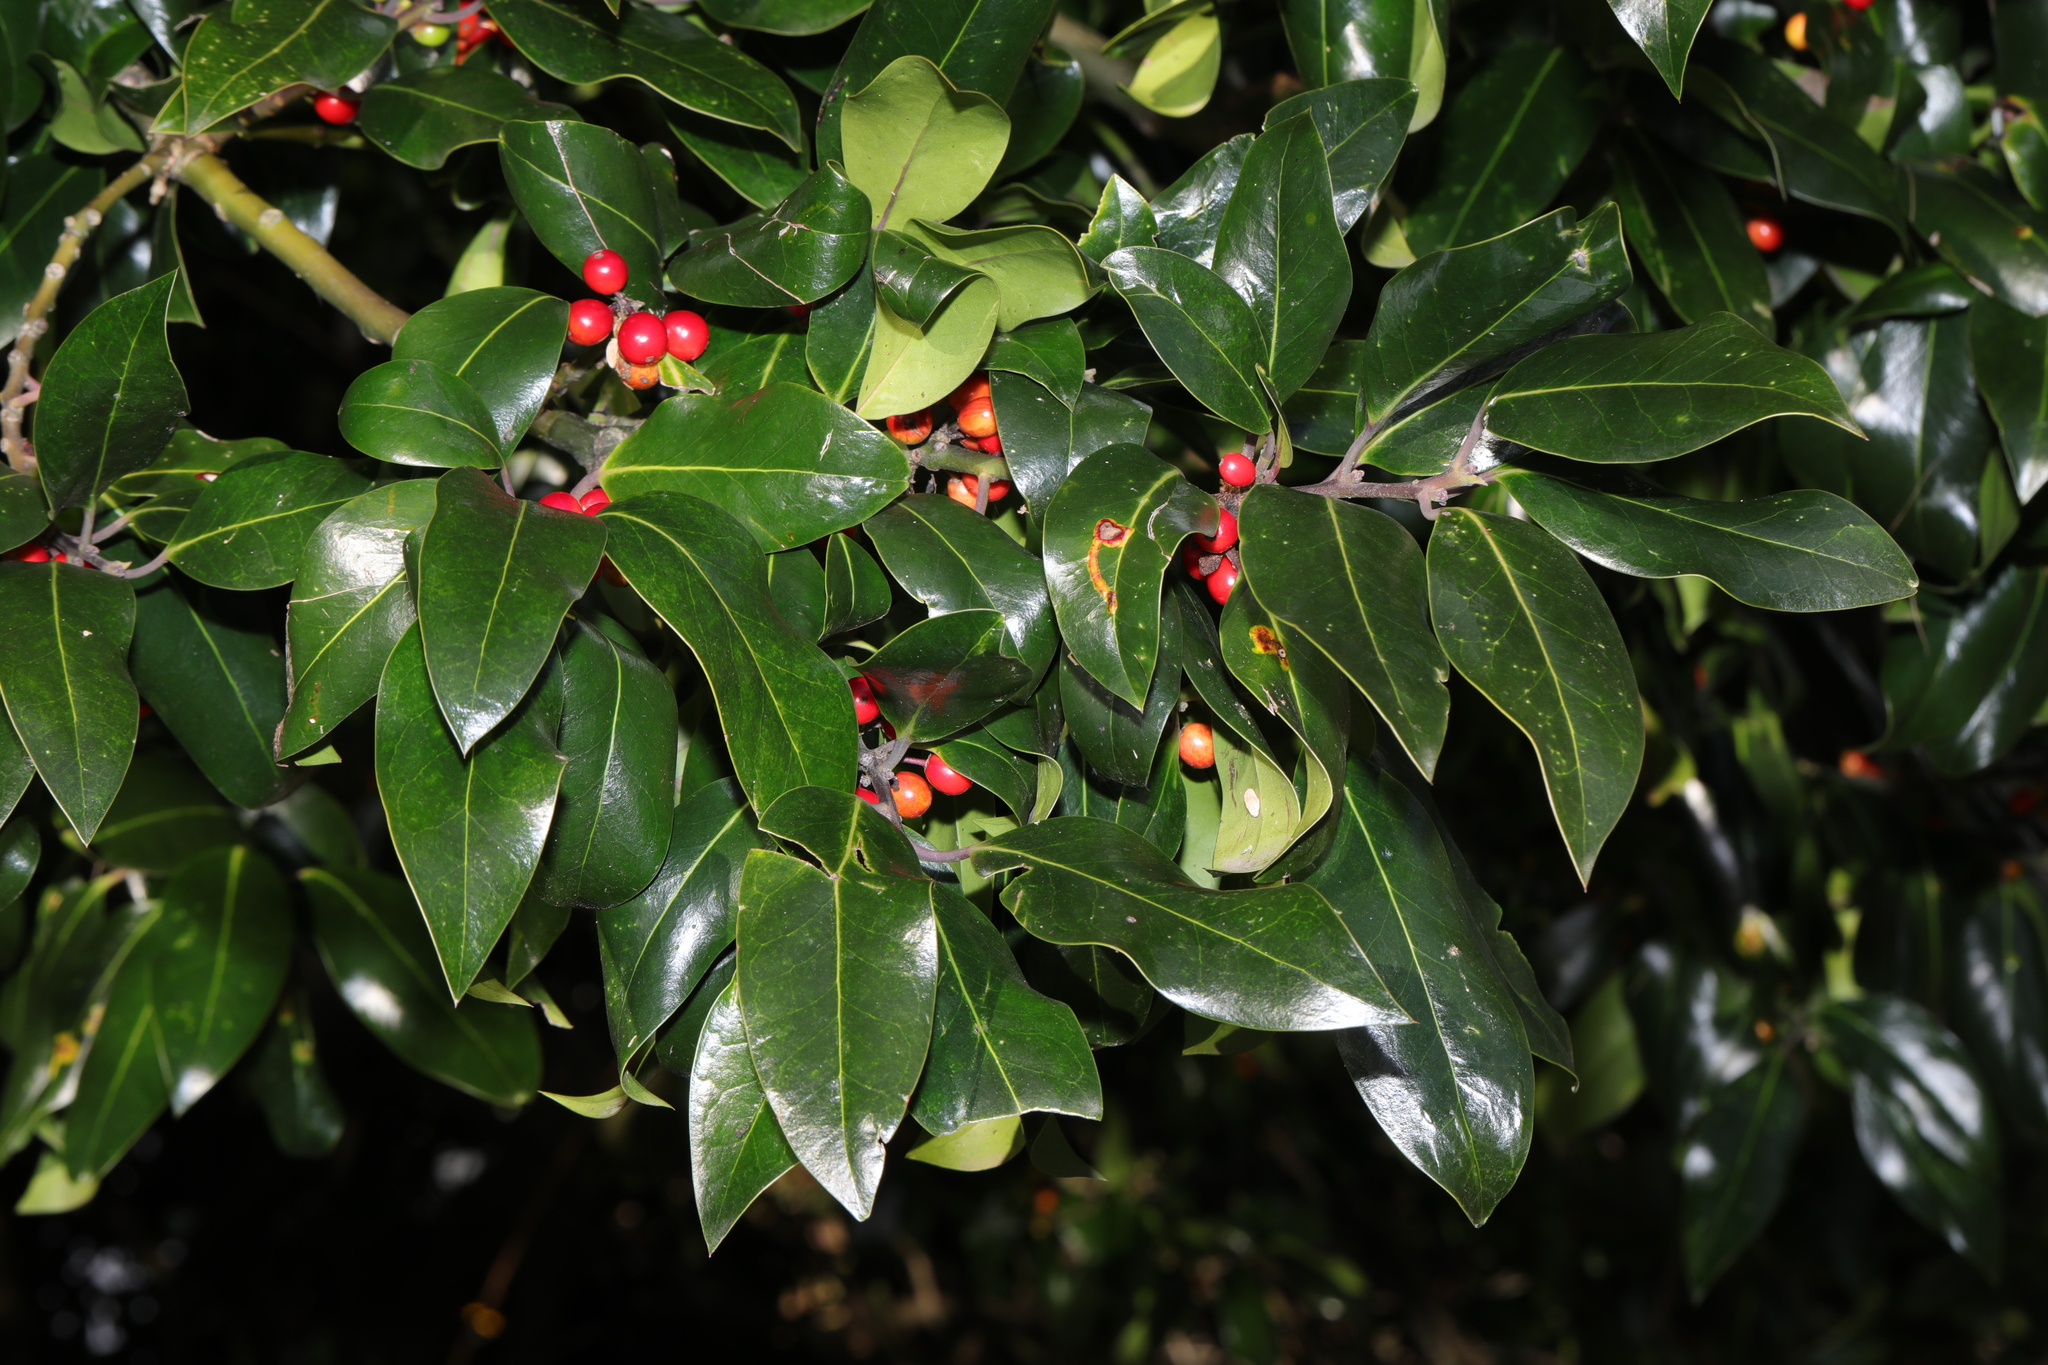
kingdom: Plantae
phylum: Tracheophyta
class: Magnoliopsida
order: Aquifoliales
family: Aquifoliaceae
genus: Ilex
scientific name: Ilex altaclerensis
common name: Highclere holly
